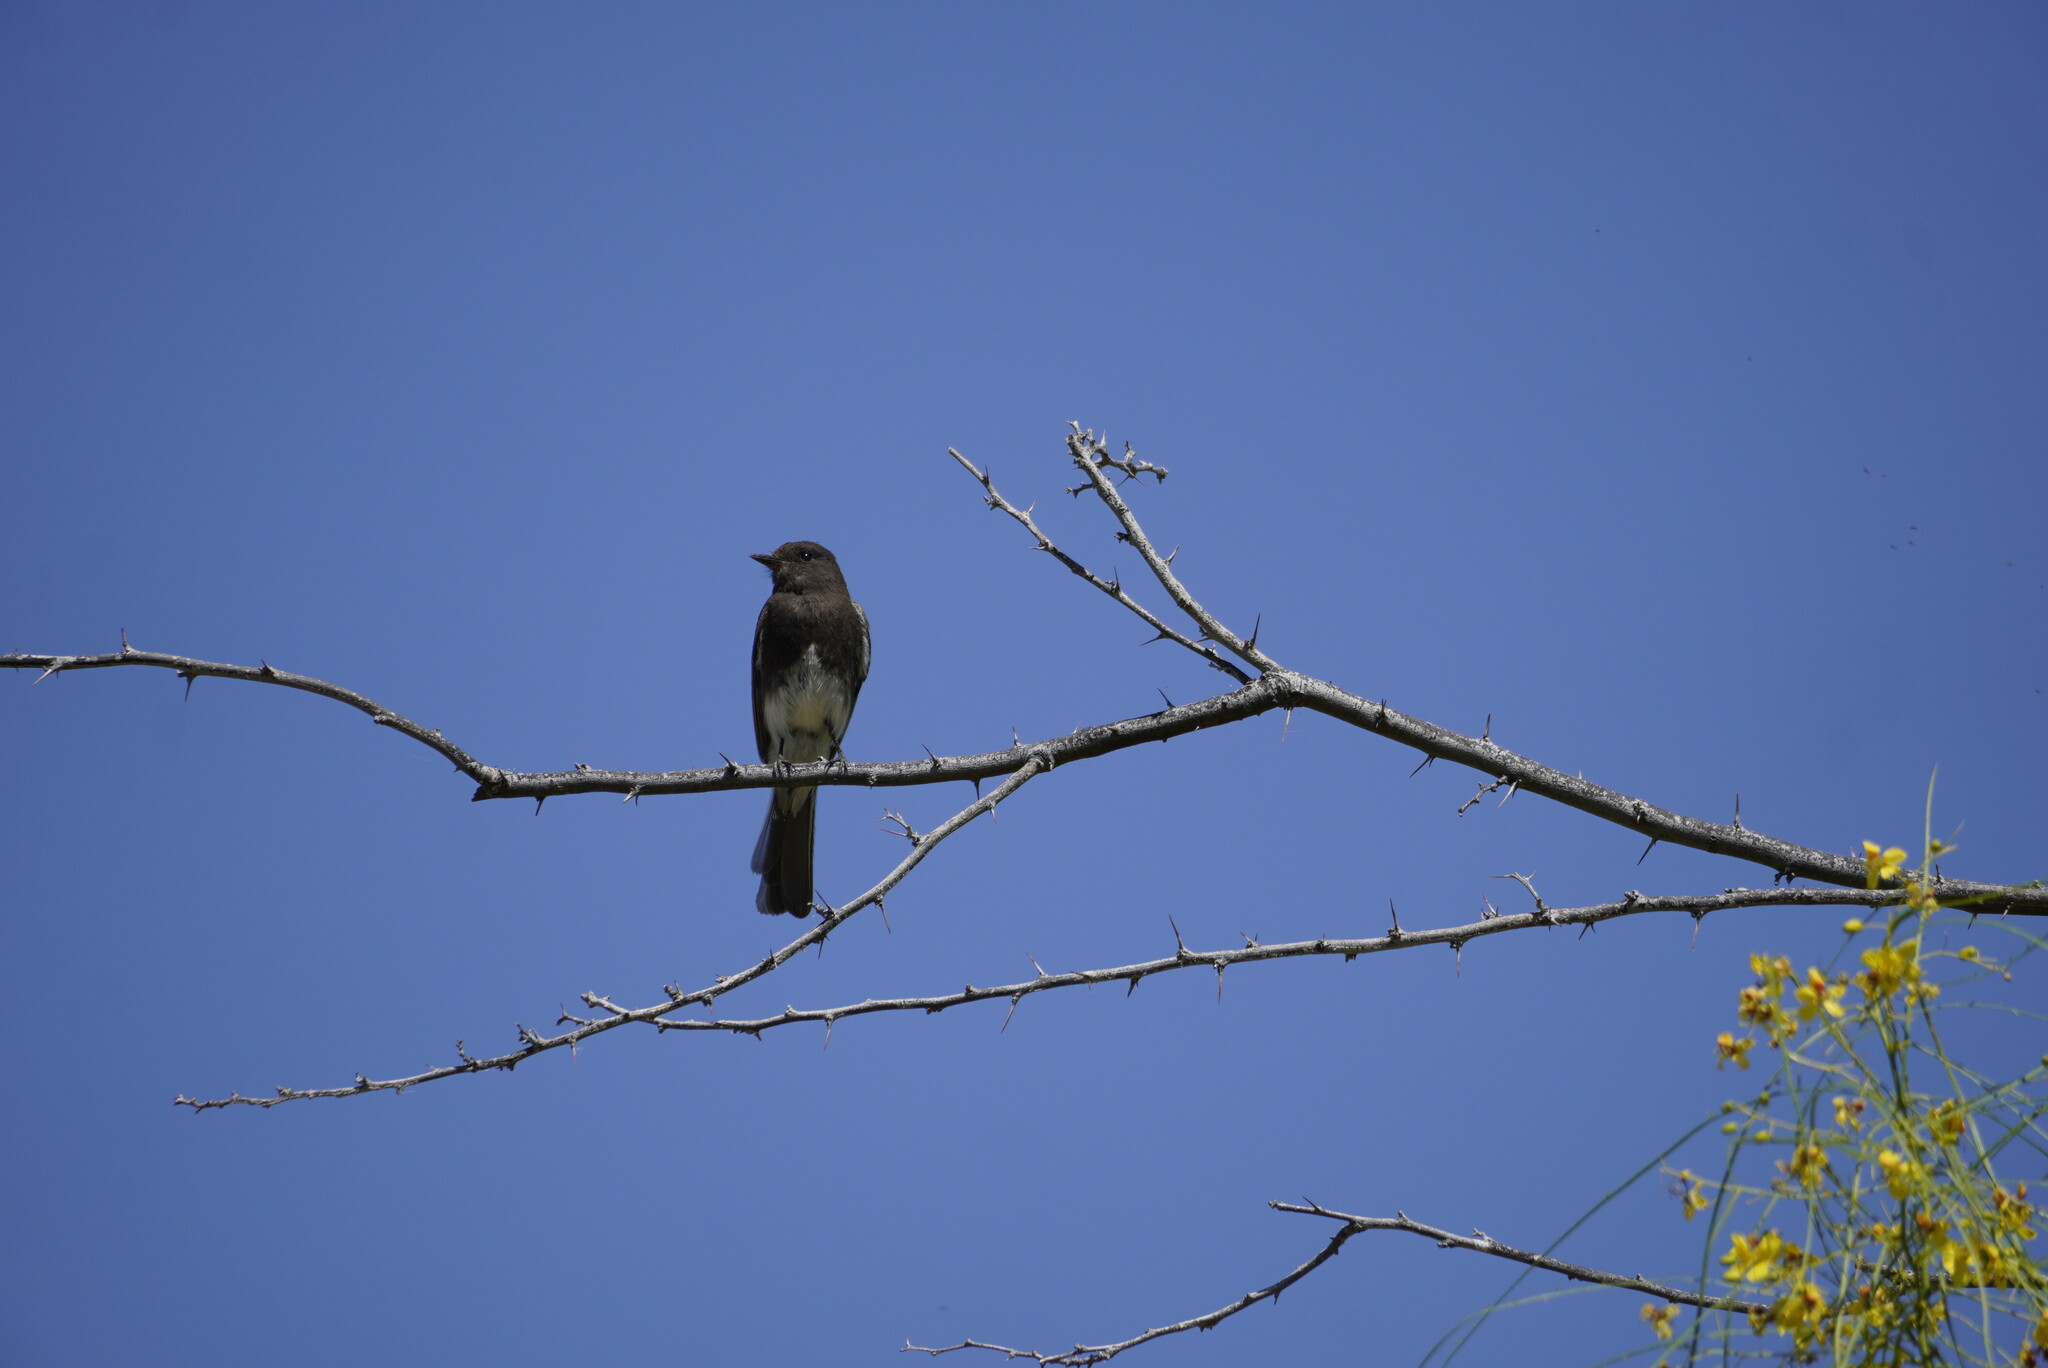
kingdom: Animalia
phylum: Chordata
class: Aves
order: Passeriformes
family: Tyrannidae
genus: Sayornis
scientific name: Sayornis nigricans
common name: Black phoebe
